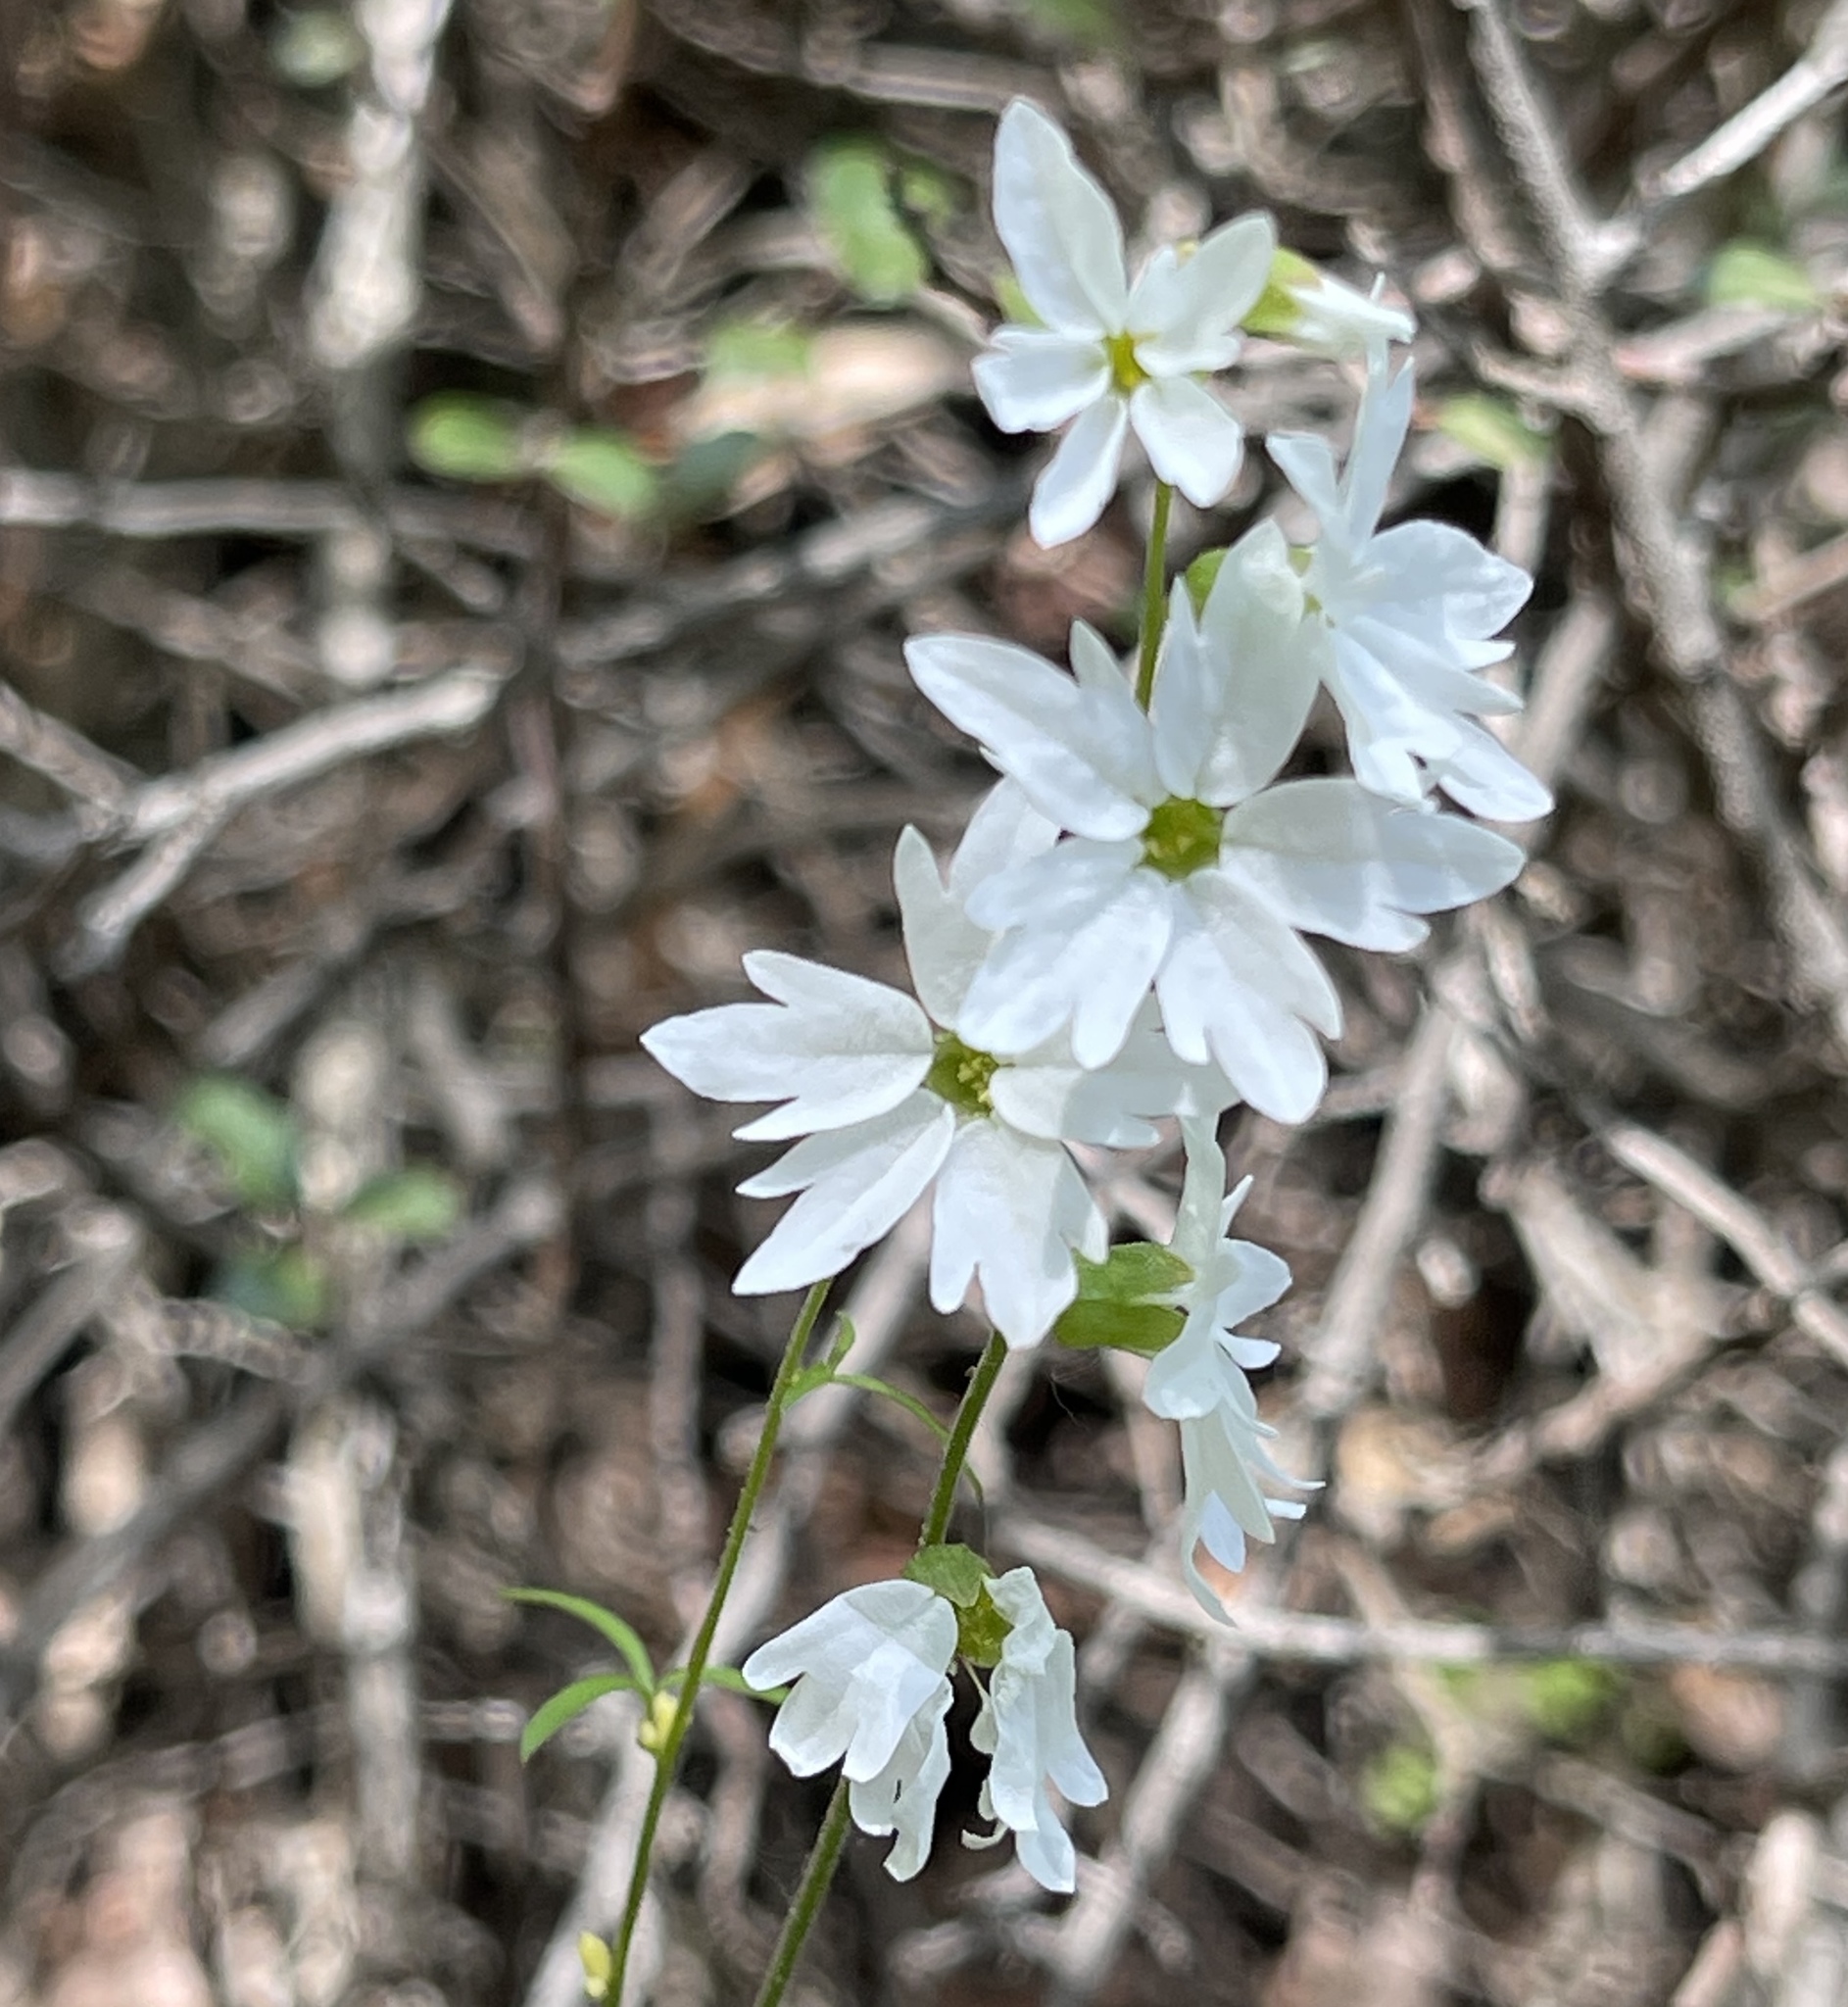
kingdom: Plantae
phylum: Tracheophyta
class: Magnoliopsida
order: Saxifragales
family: Saxifragaceae
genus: Lithophragma
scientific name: Lithophragma heterophyllum
